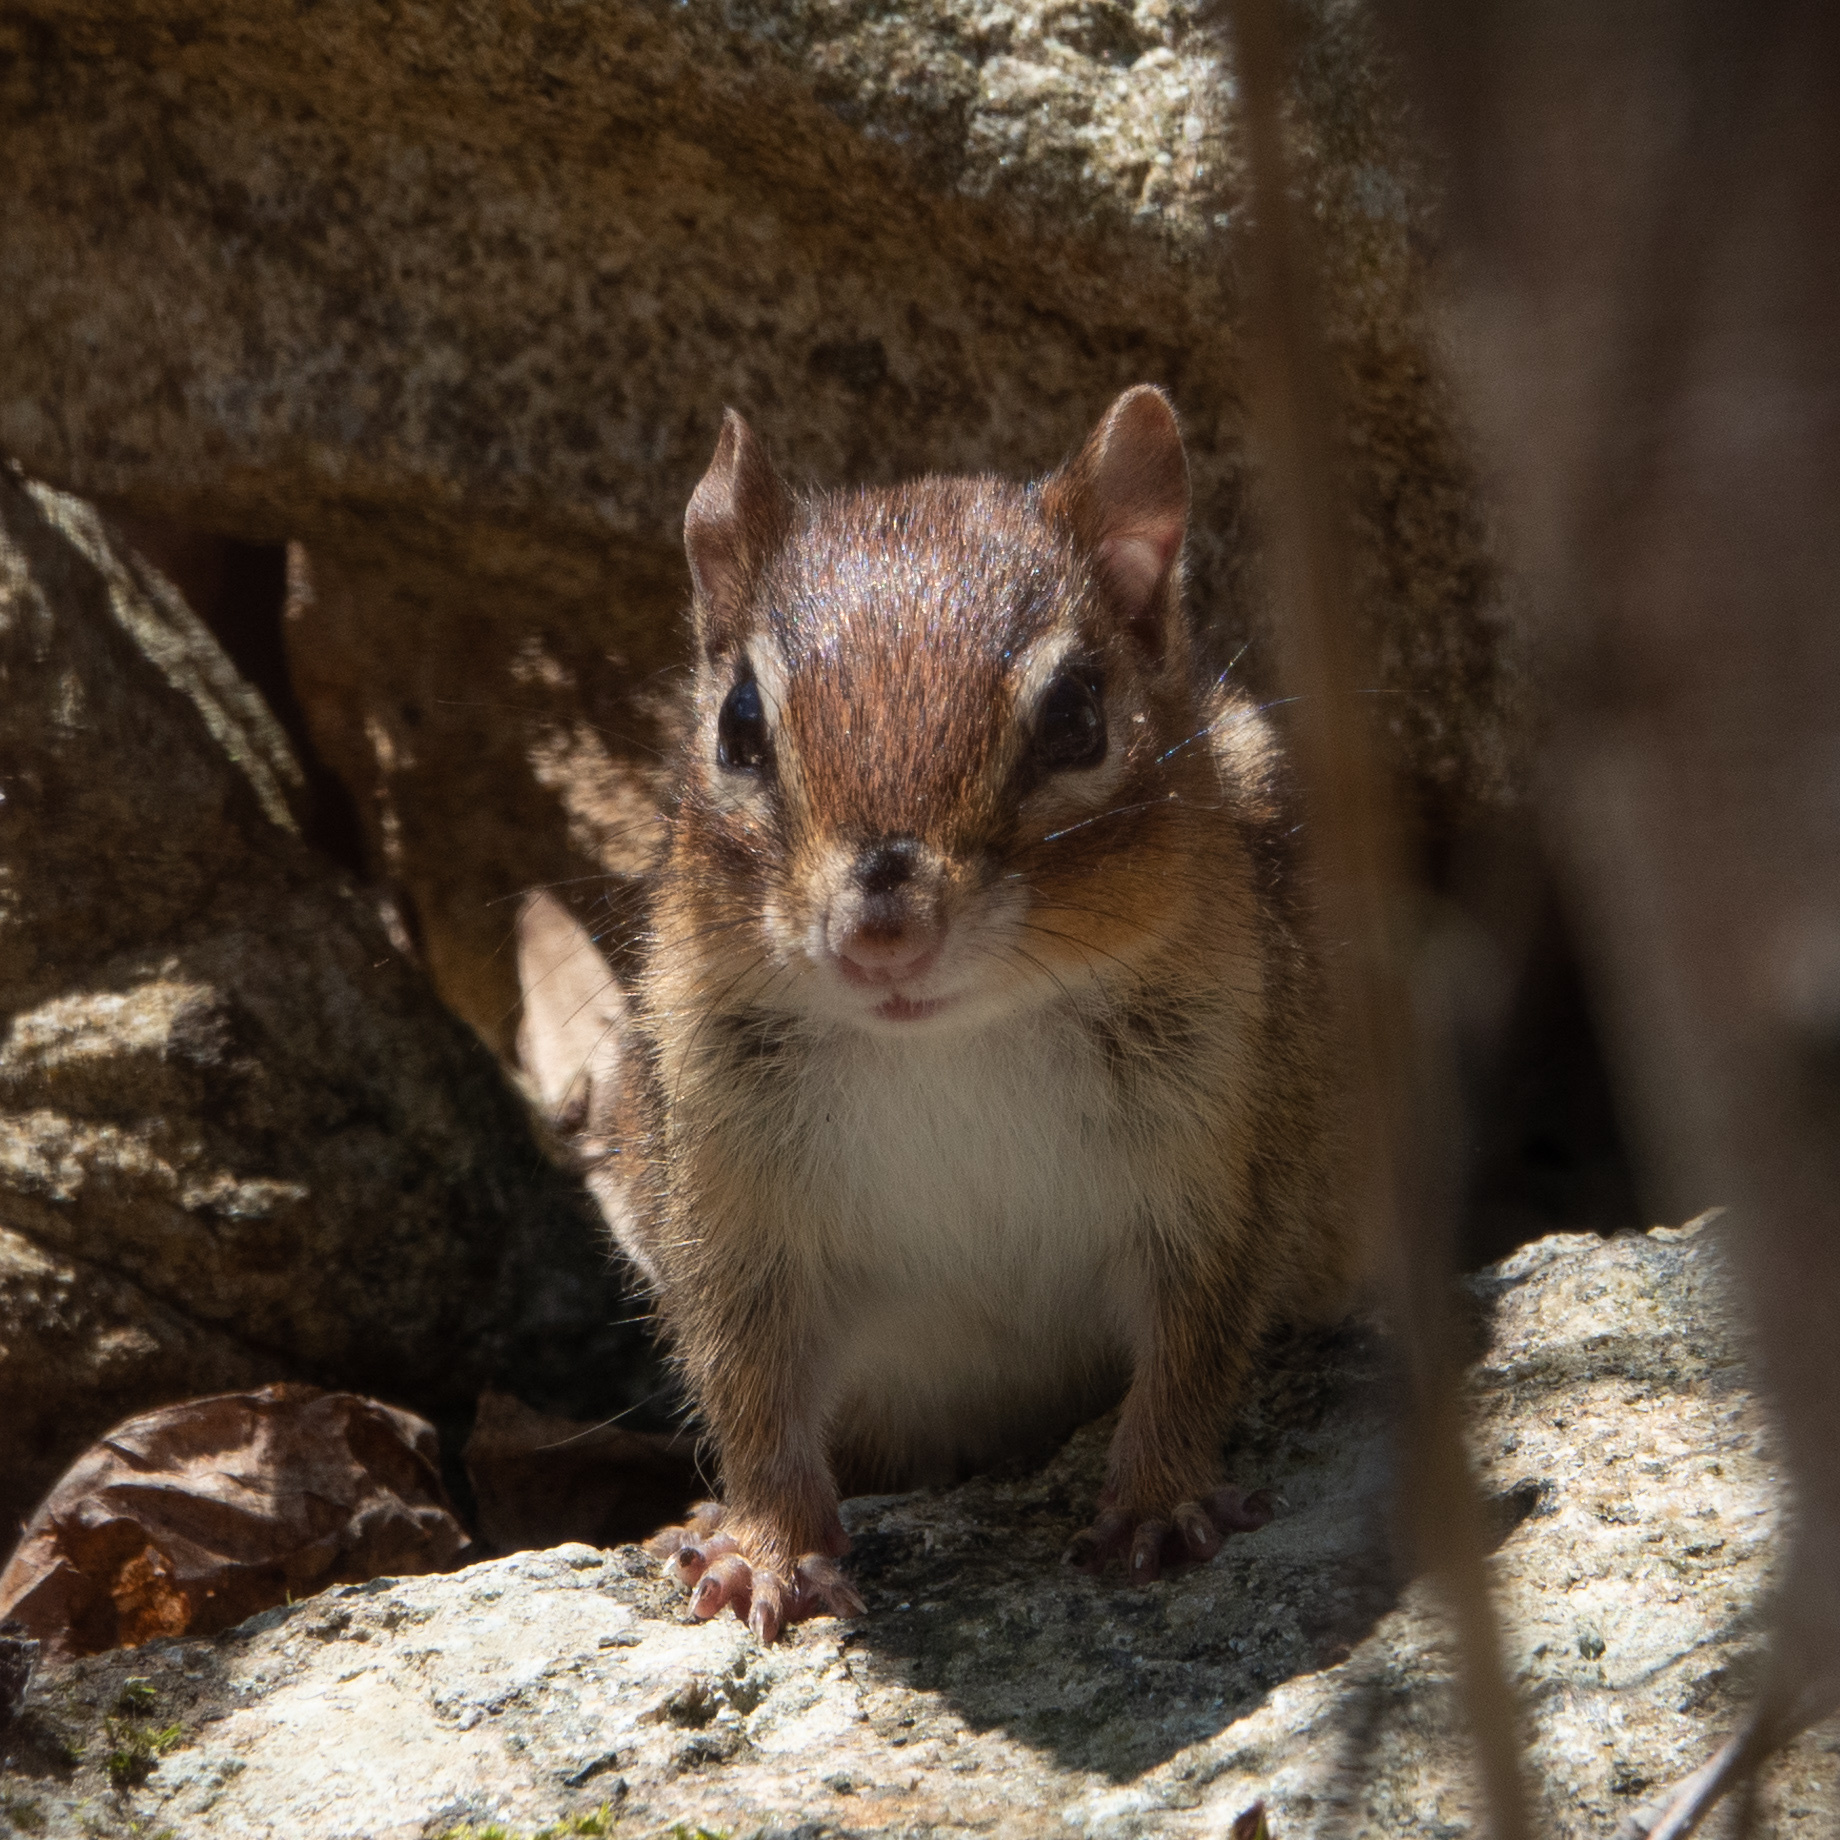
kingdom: Animalia
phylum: Chordata
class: Mammalia
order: Rodentia
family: Sciuridae
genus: Tamias
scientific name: Tamias striatus
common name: Eastern chipmunk
